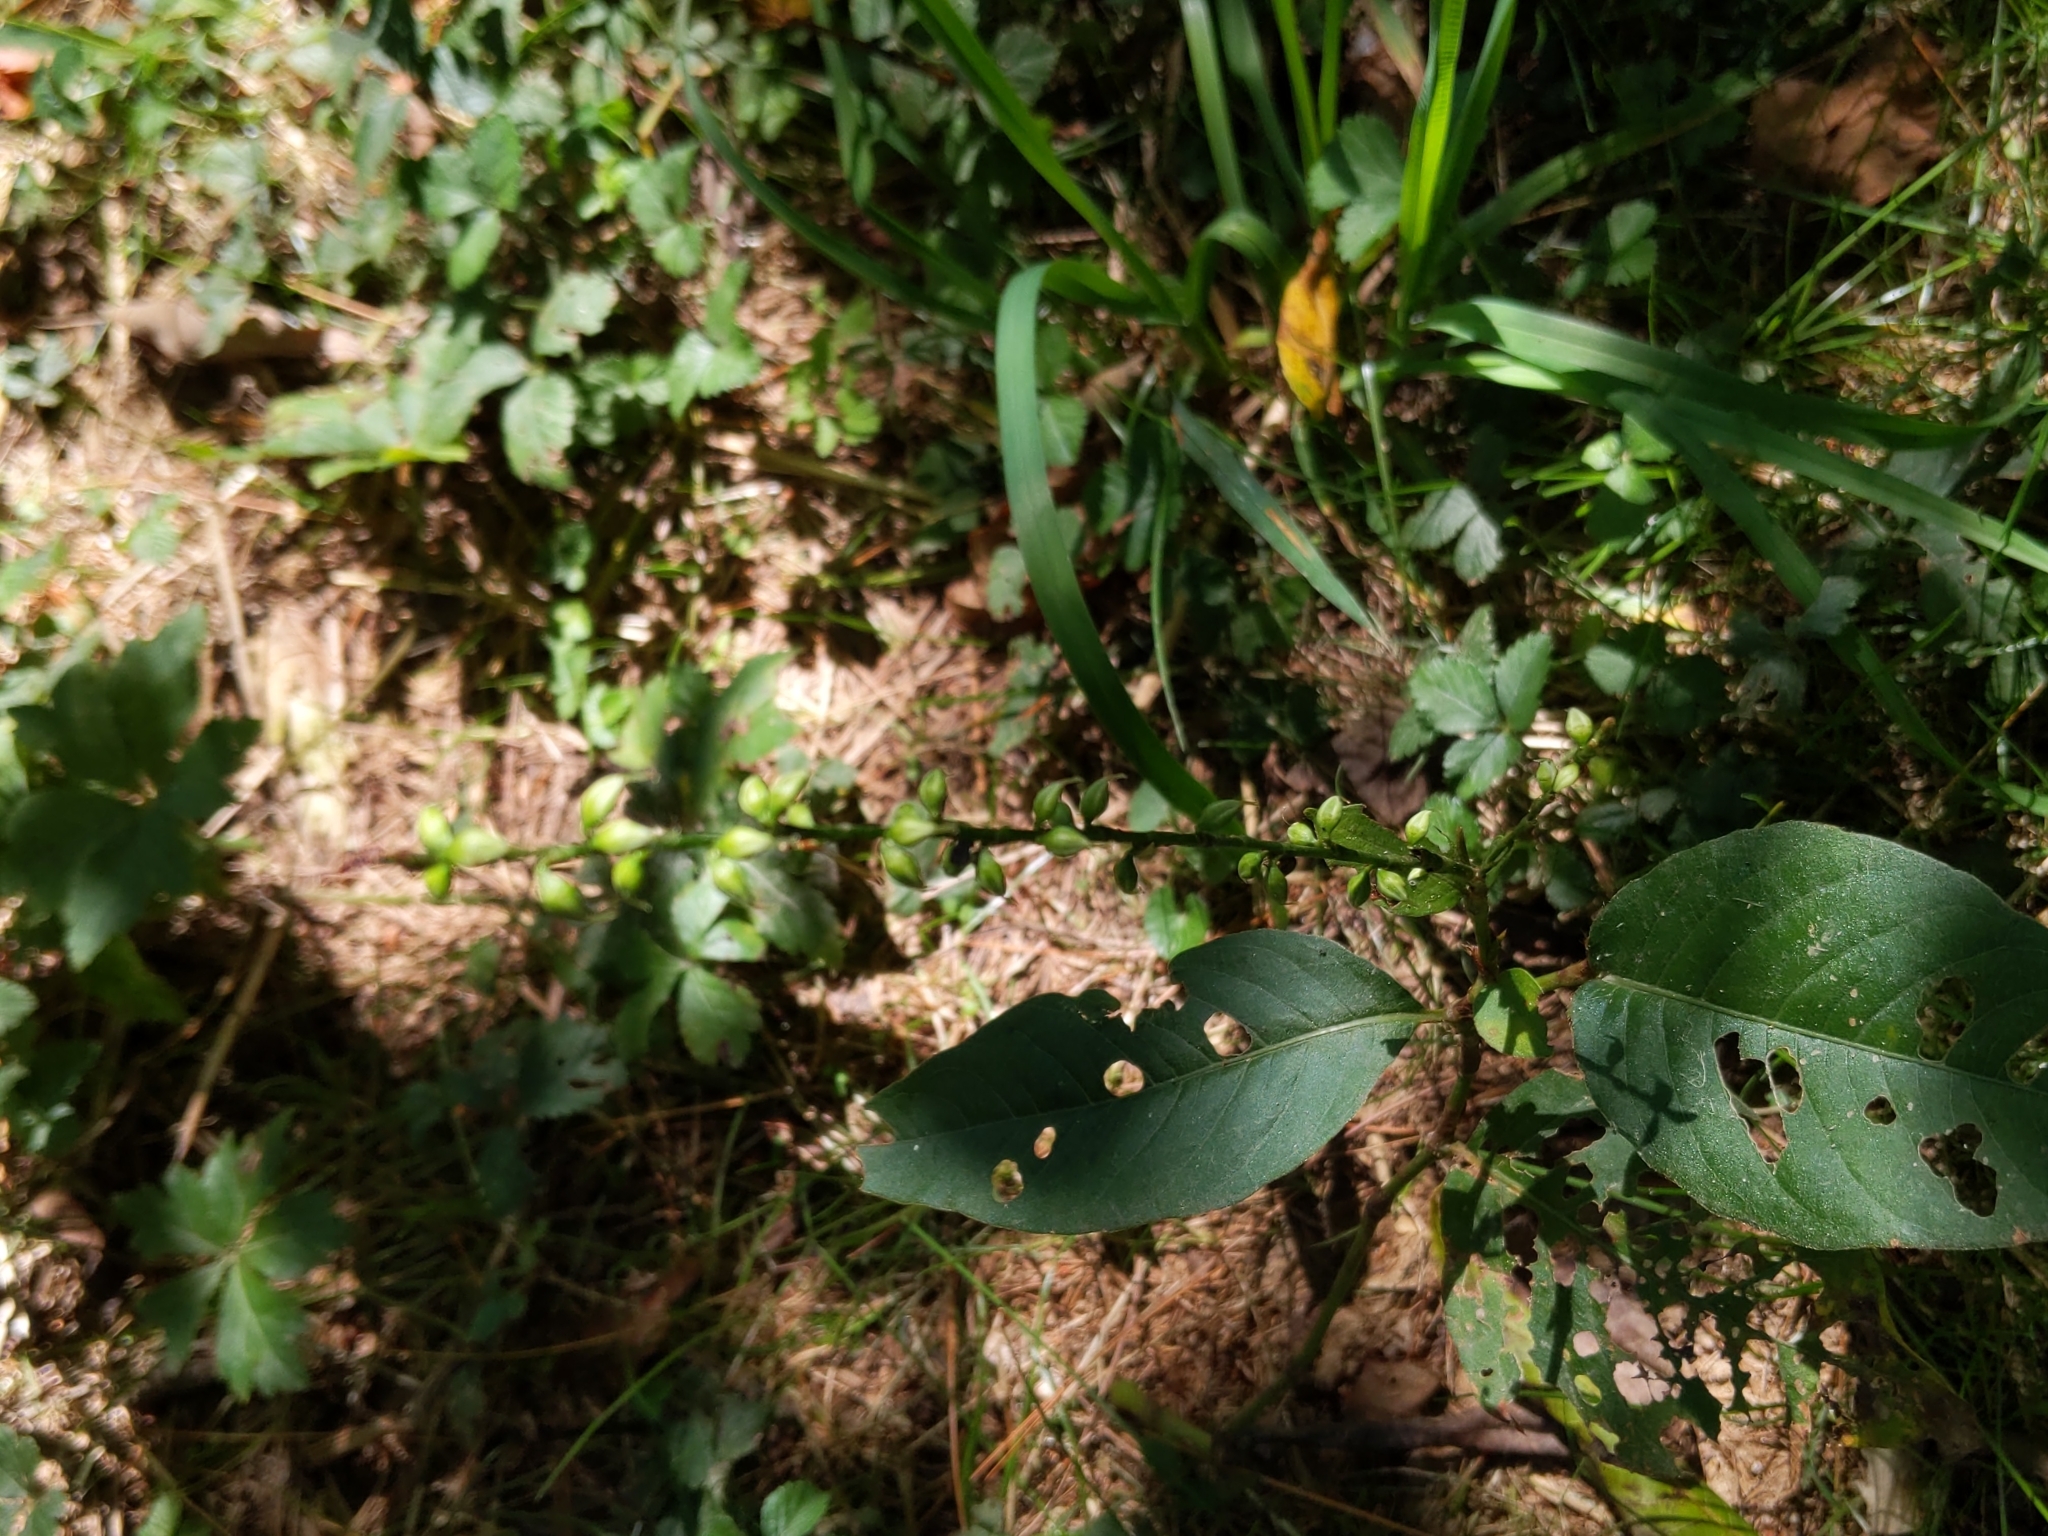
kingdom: Plantae
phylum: Tracheophyta
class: Magnoliopsida
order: Caryophyllales
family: Polygonaceae
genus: Persicaria
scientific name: Persicaria virginiana
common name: Jumpseed
